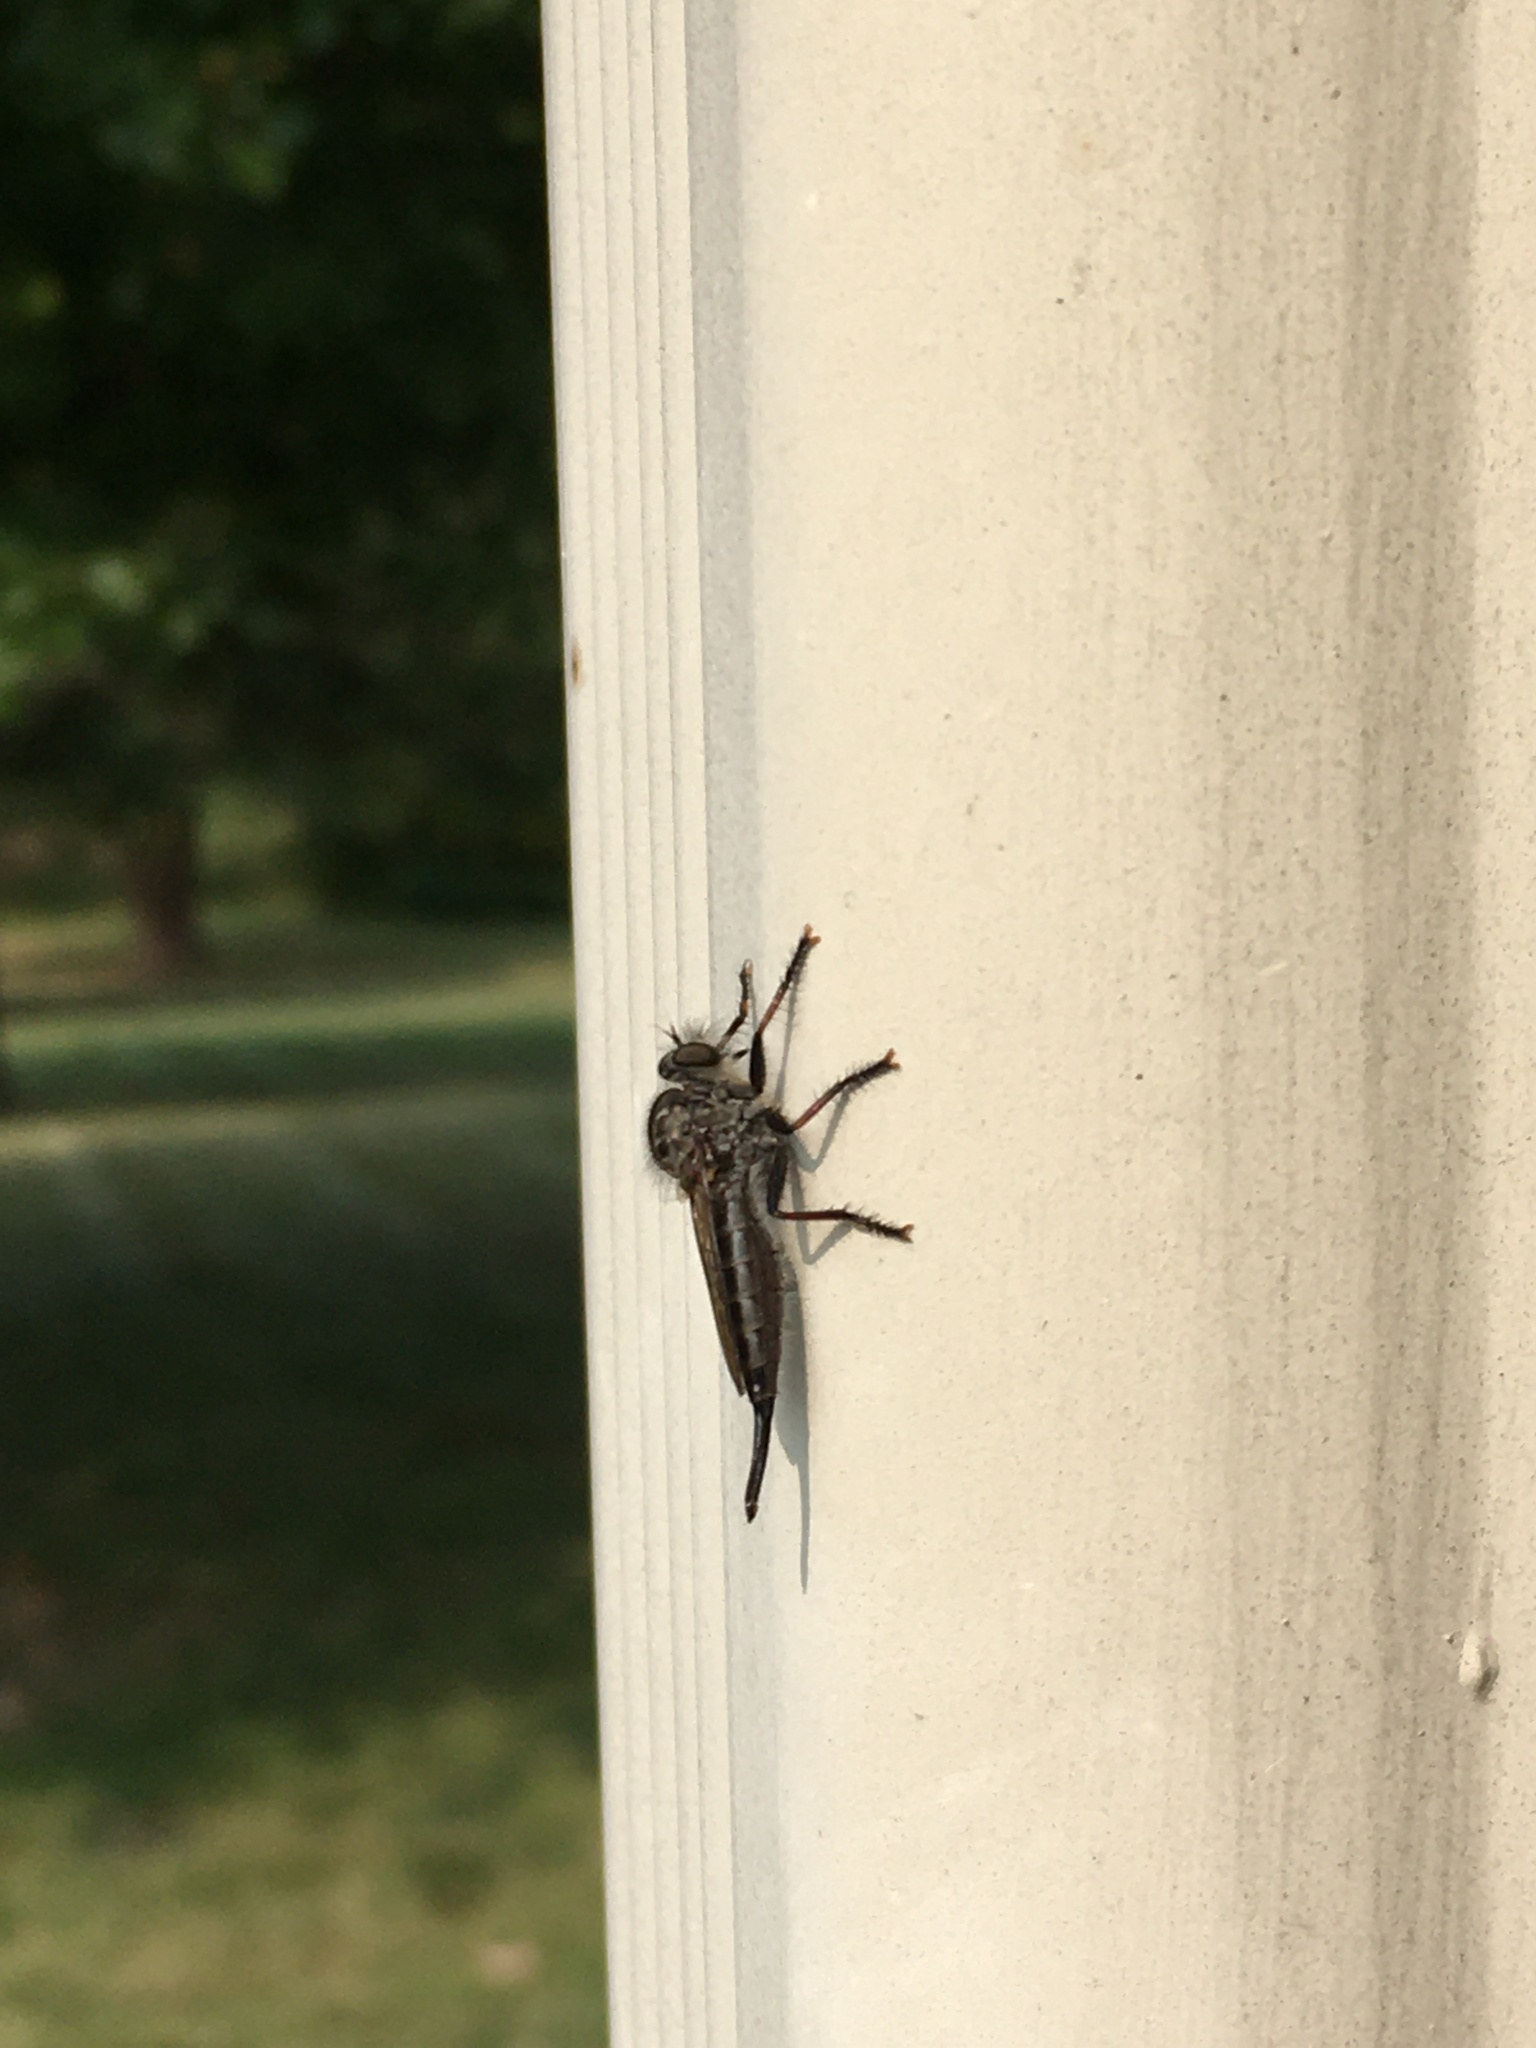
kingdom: Animalia
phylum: Arthropoda
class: Insecta
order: Diptera
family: Asilidae
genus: Efferia
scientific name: Efferia aestuans
